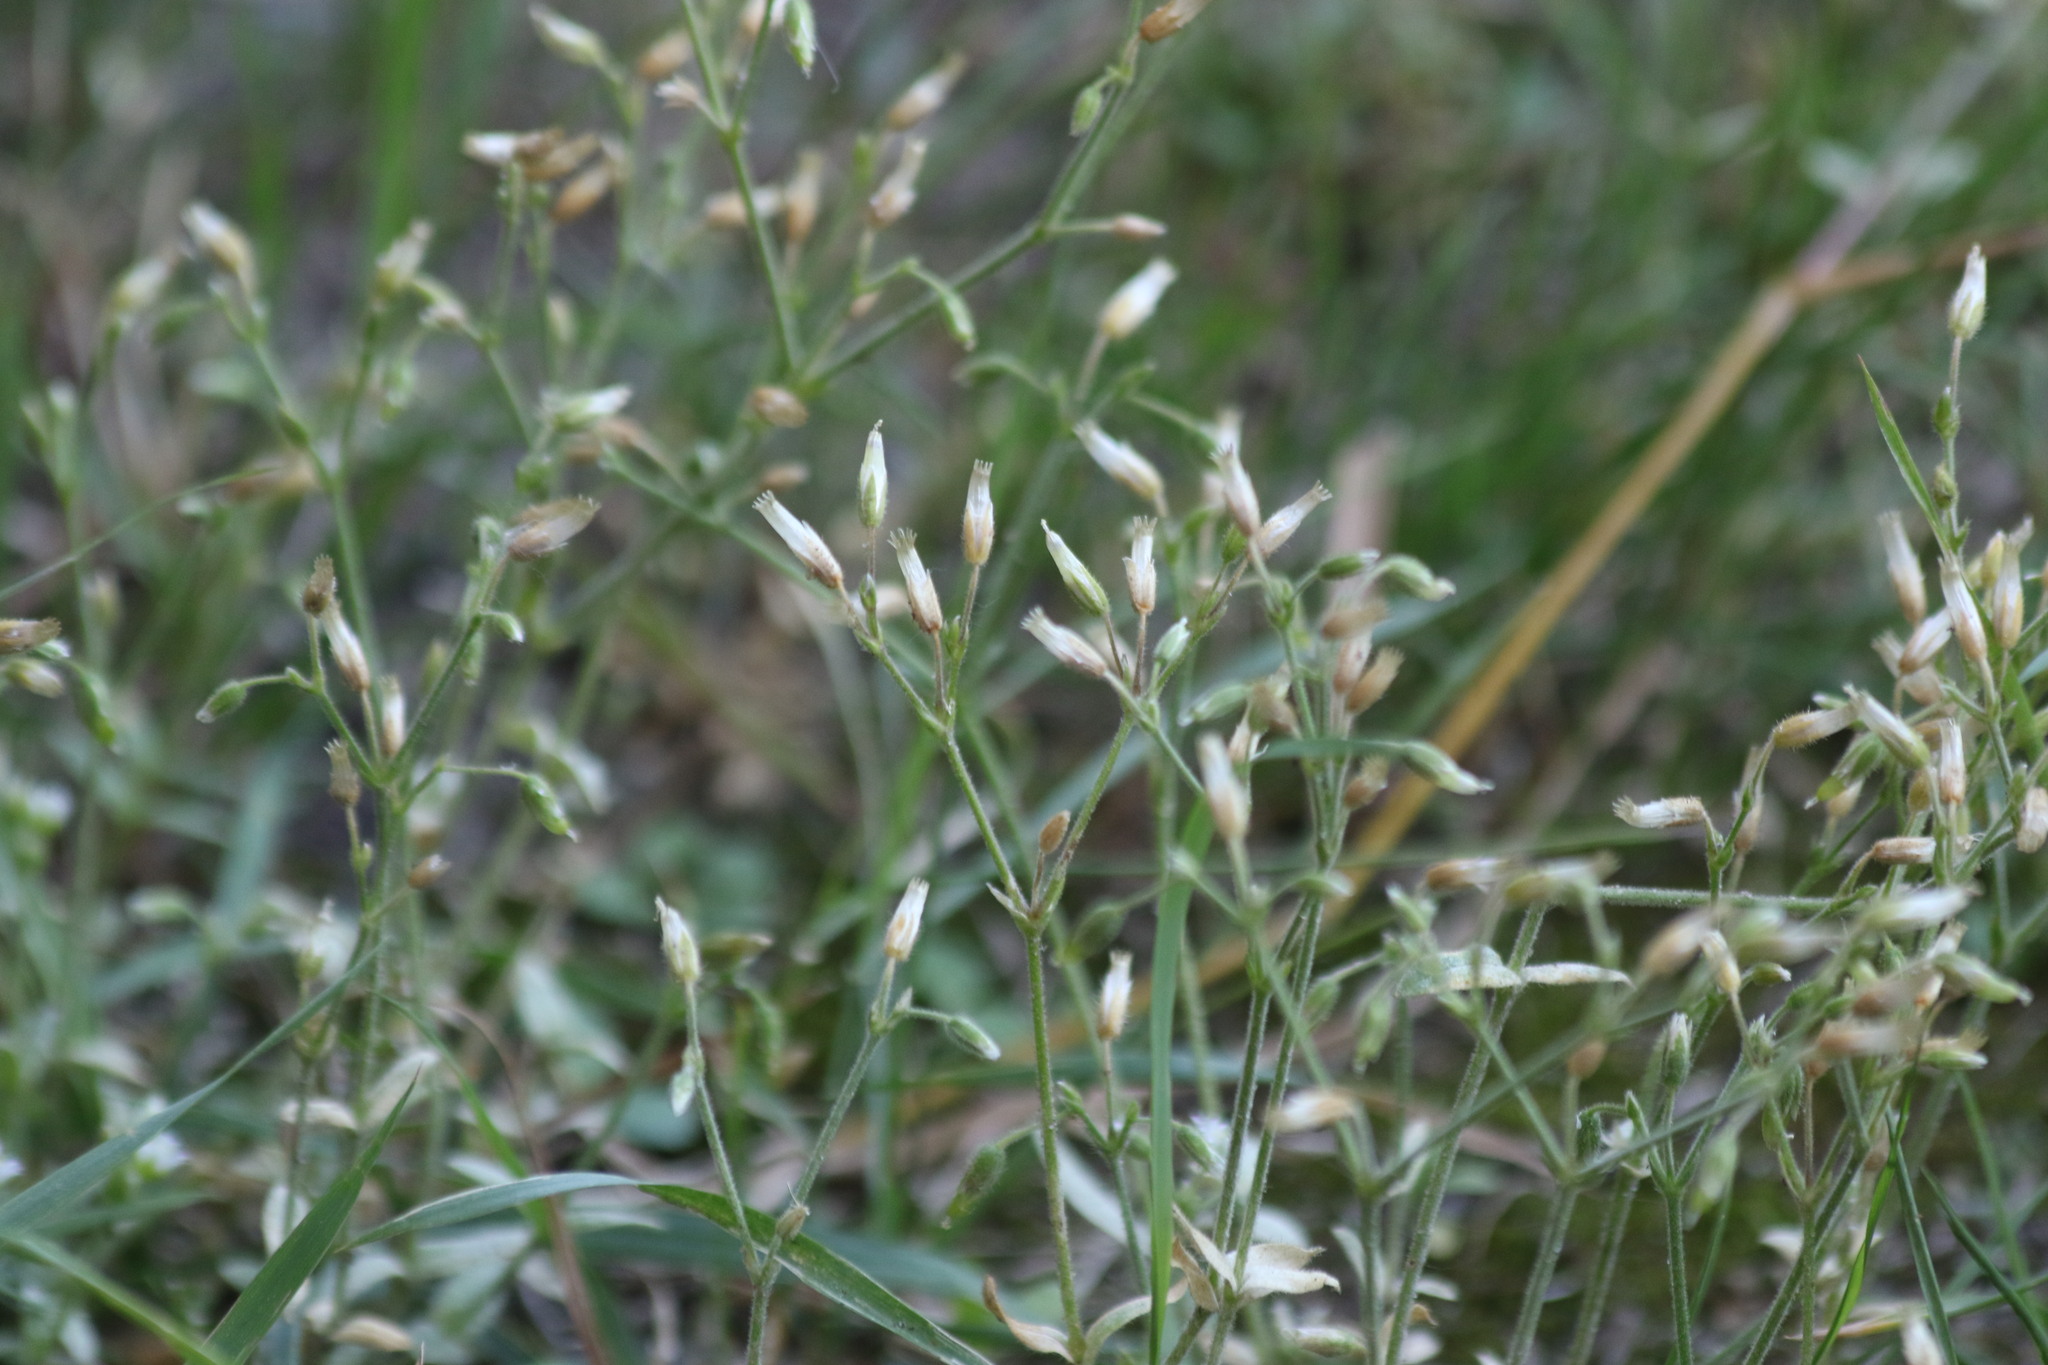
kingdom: Plantae
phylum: Tracheophyta
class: Magnoliopsida
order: Caryophyllales
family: Caryophyllaceae
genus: Cerastium
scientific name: Cerastium holosteoides
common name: Big chickweed
